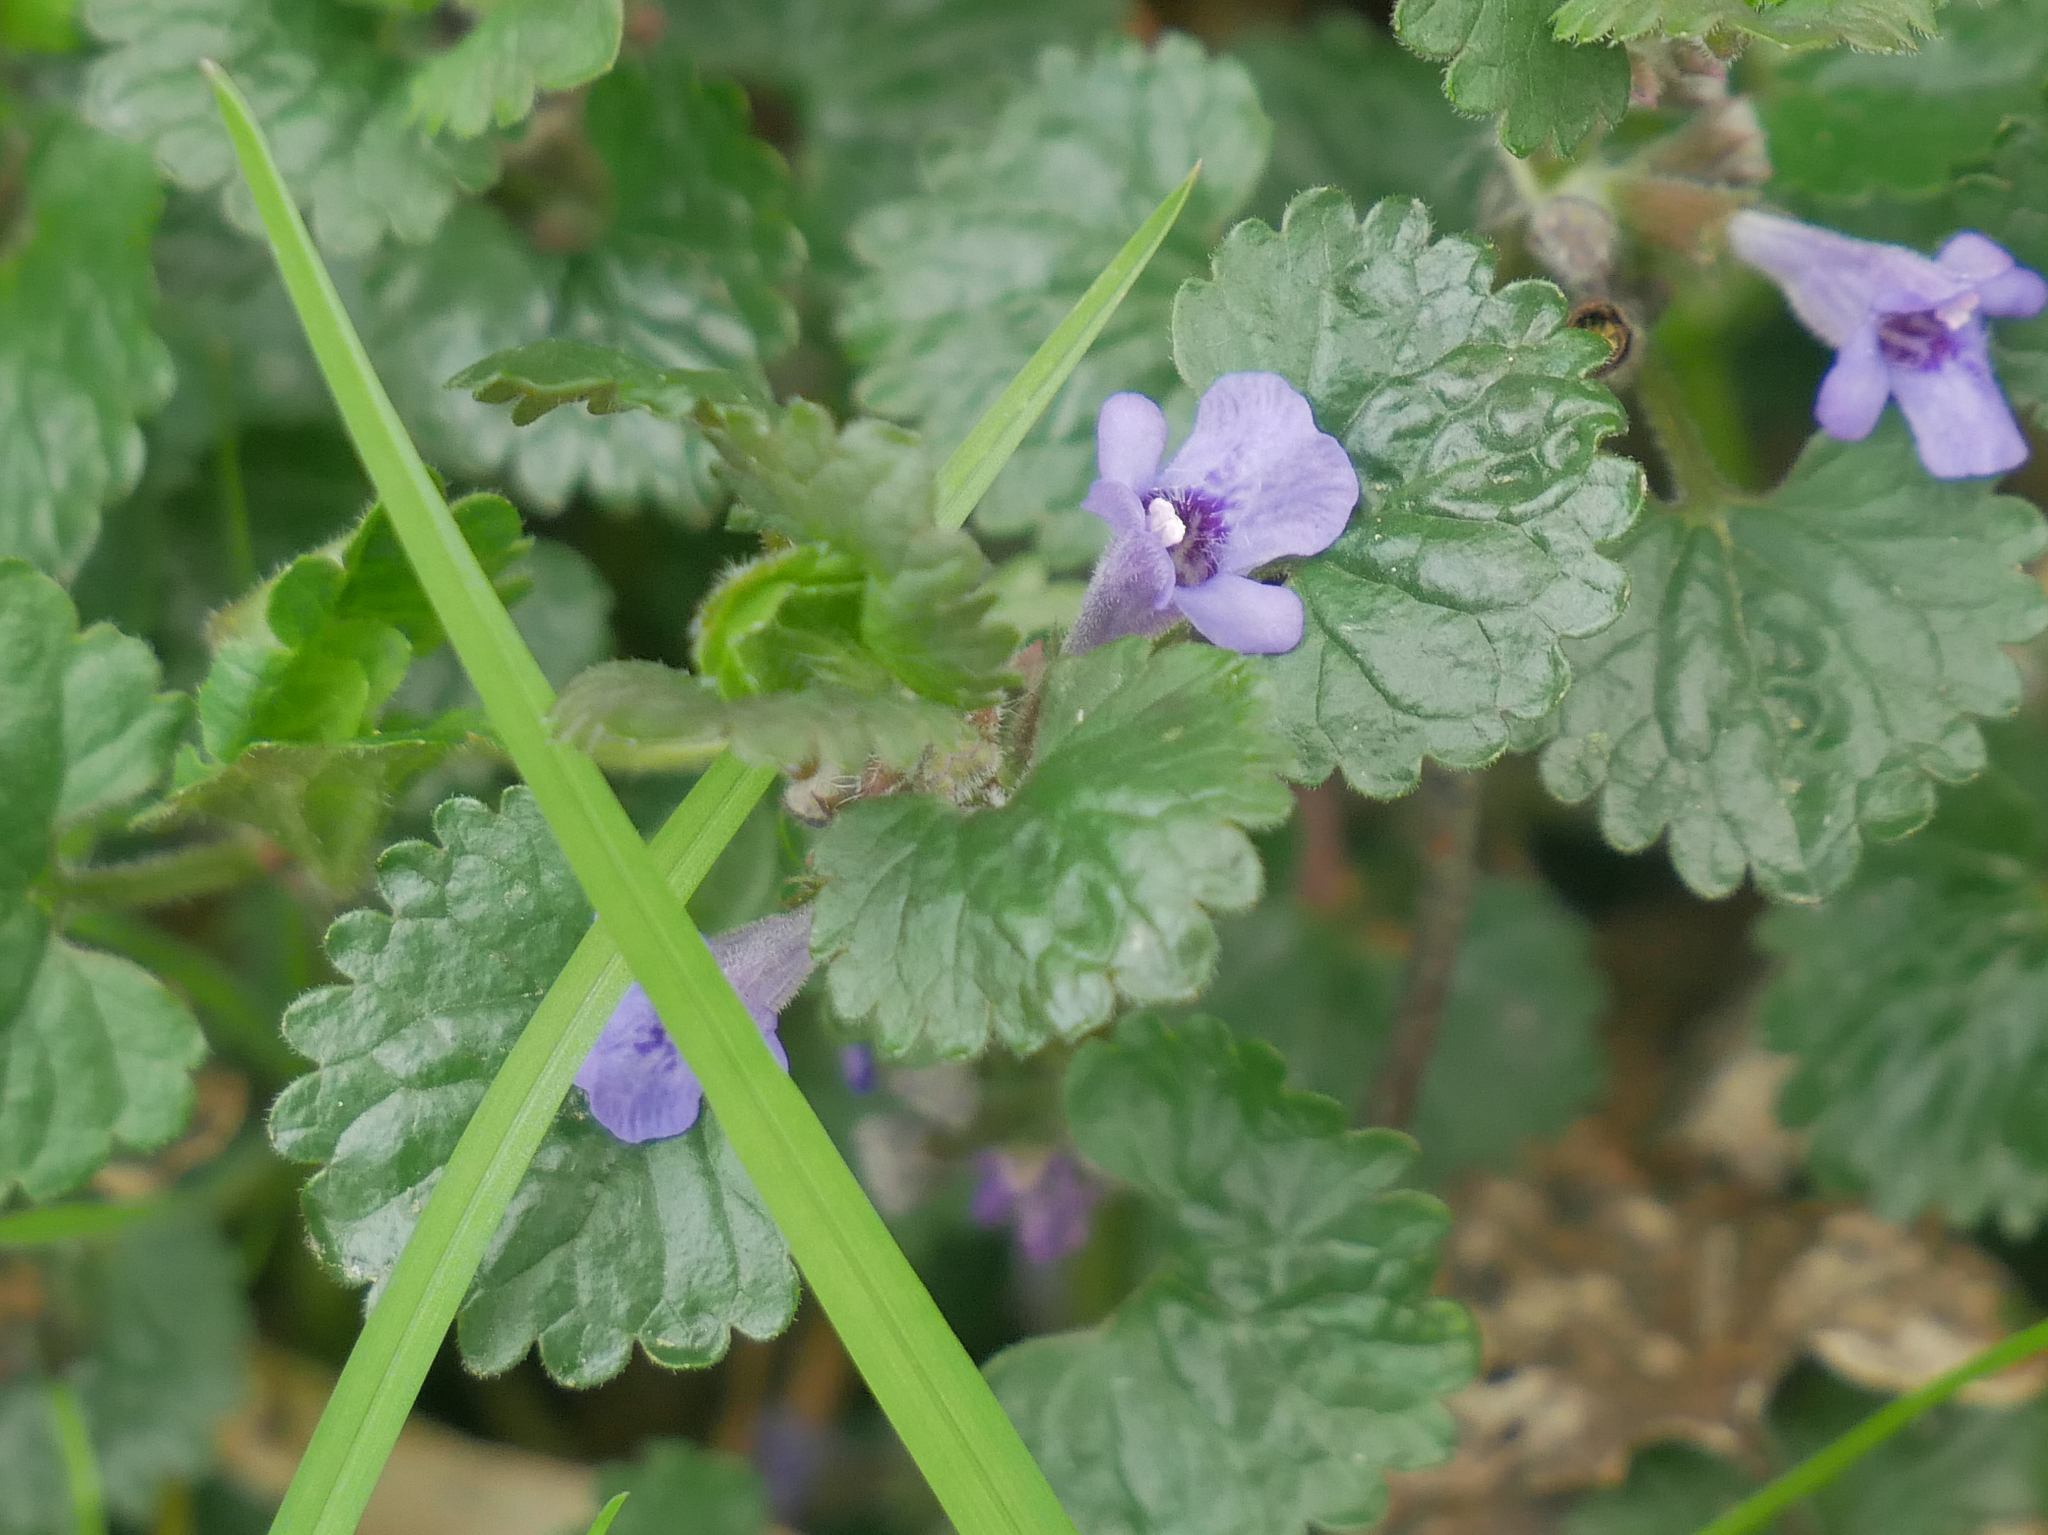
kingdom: Plantae
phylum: Tracheophyta
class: Magnoliopsida
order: Lamiales
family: Lamiaceae
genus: Glechoma
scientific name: Glechoma hederacea
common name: Ground ivy
